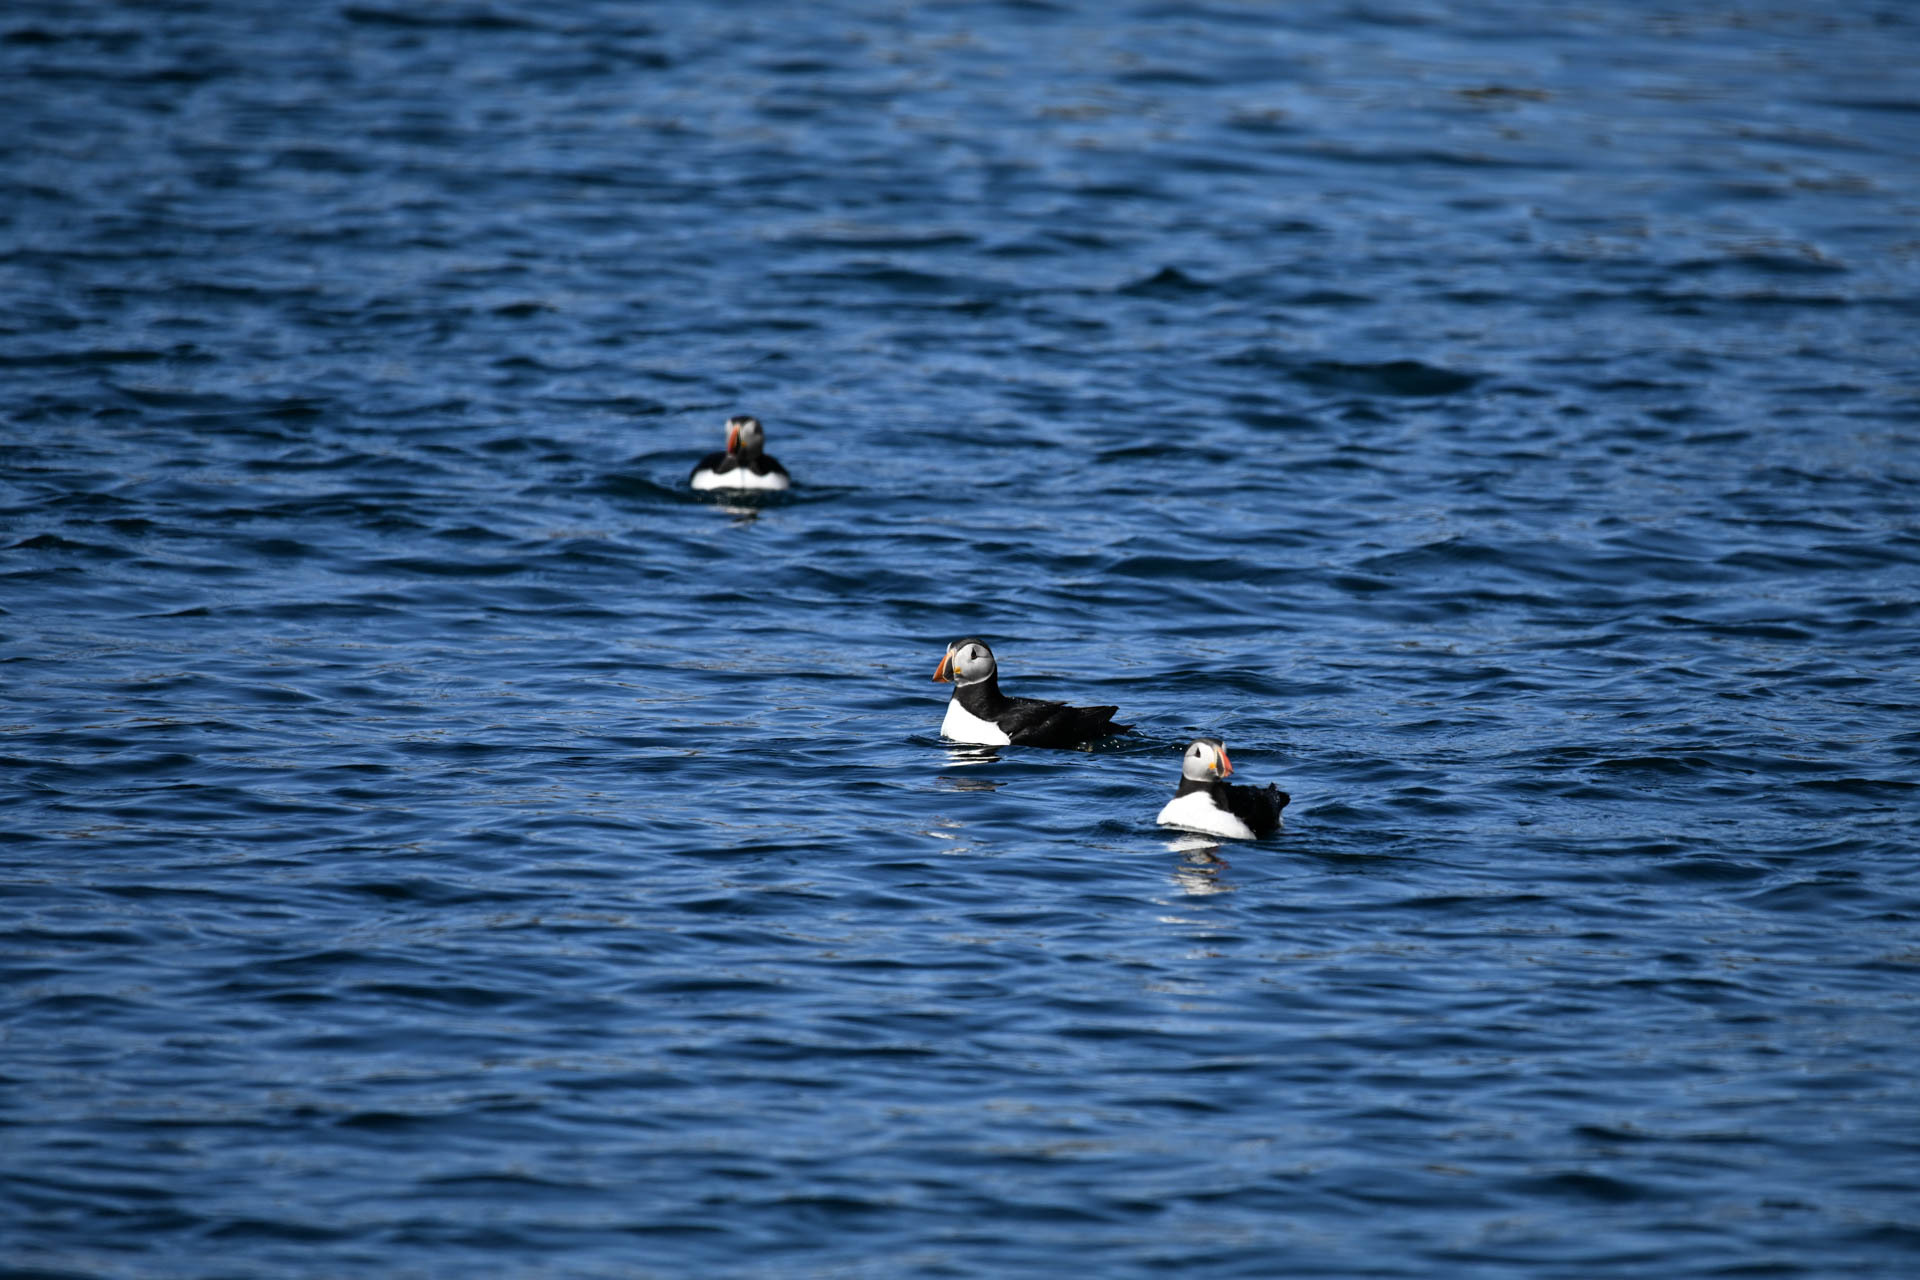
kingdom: Animalia
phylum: Chordata
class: Aves
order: Charadriiformes
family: Alcidae
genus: Fratercula
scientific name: Fratercula arctica
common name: Atlantic puffin
